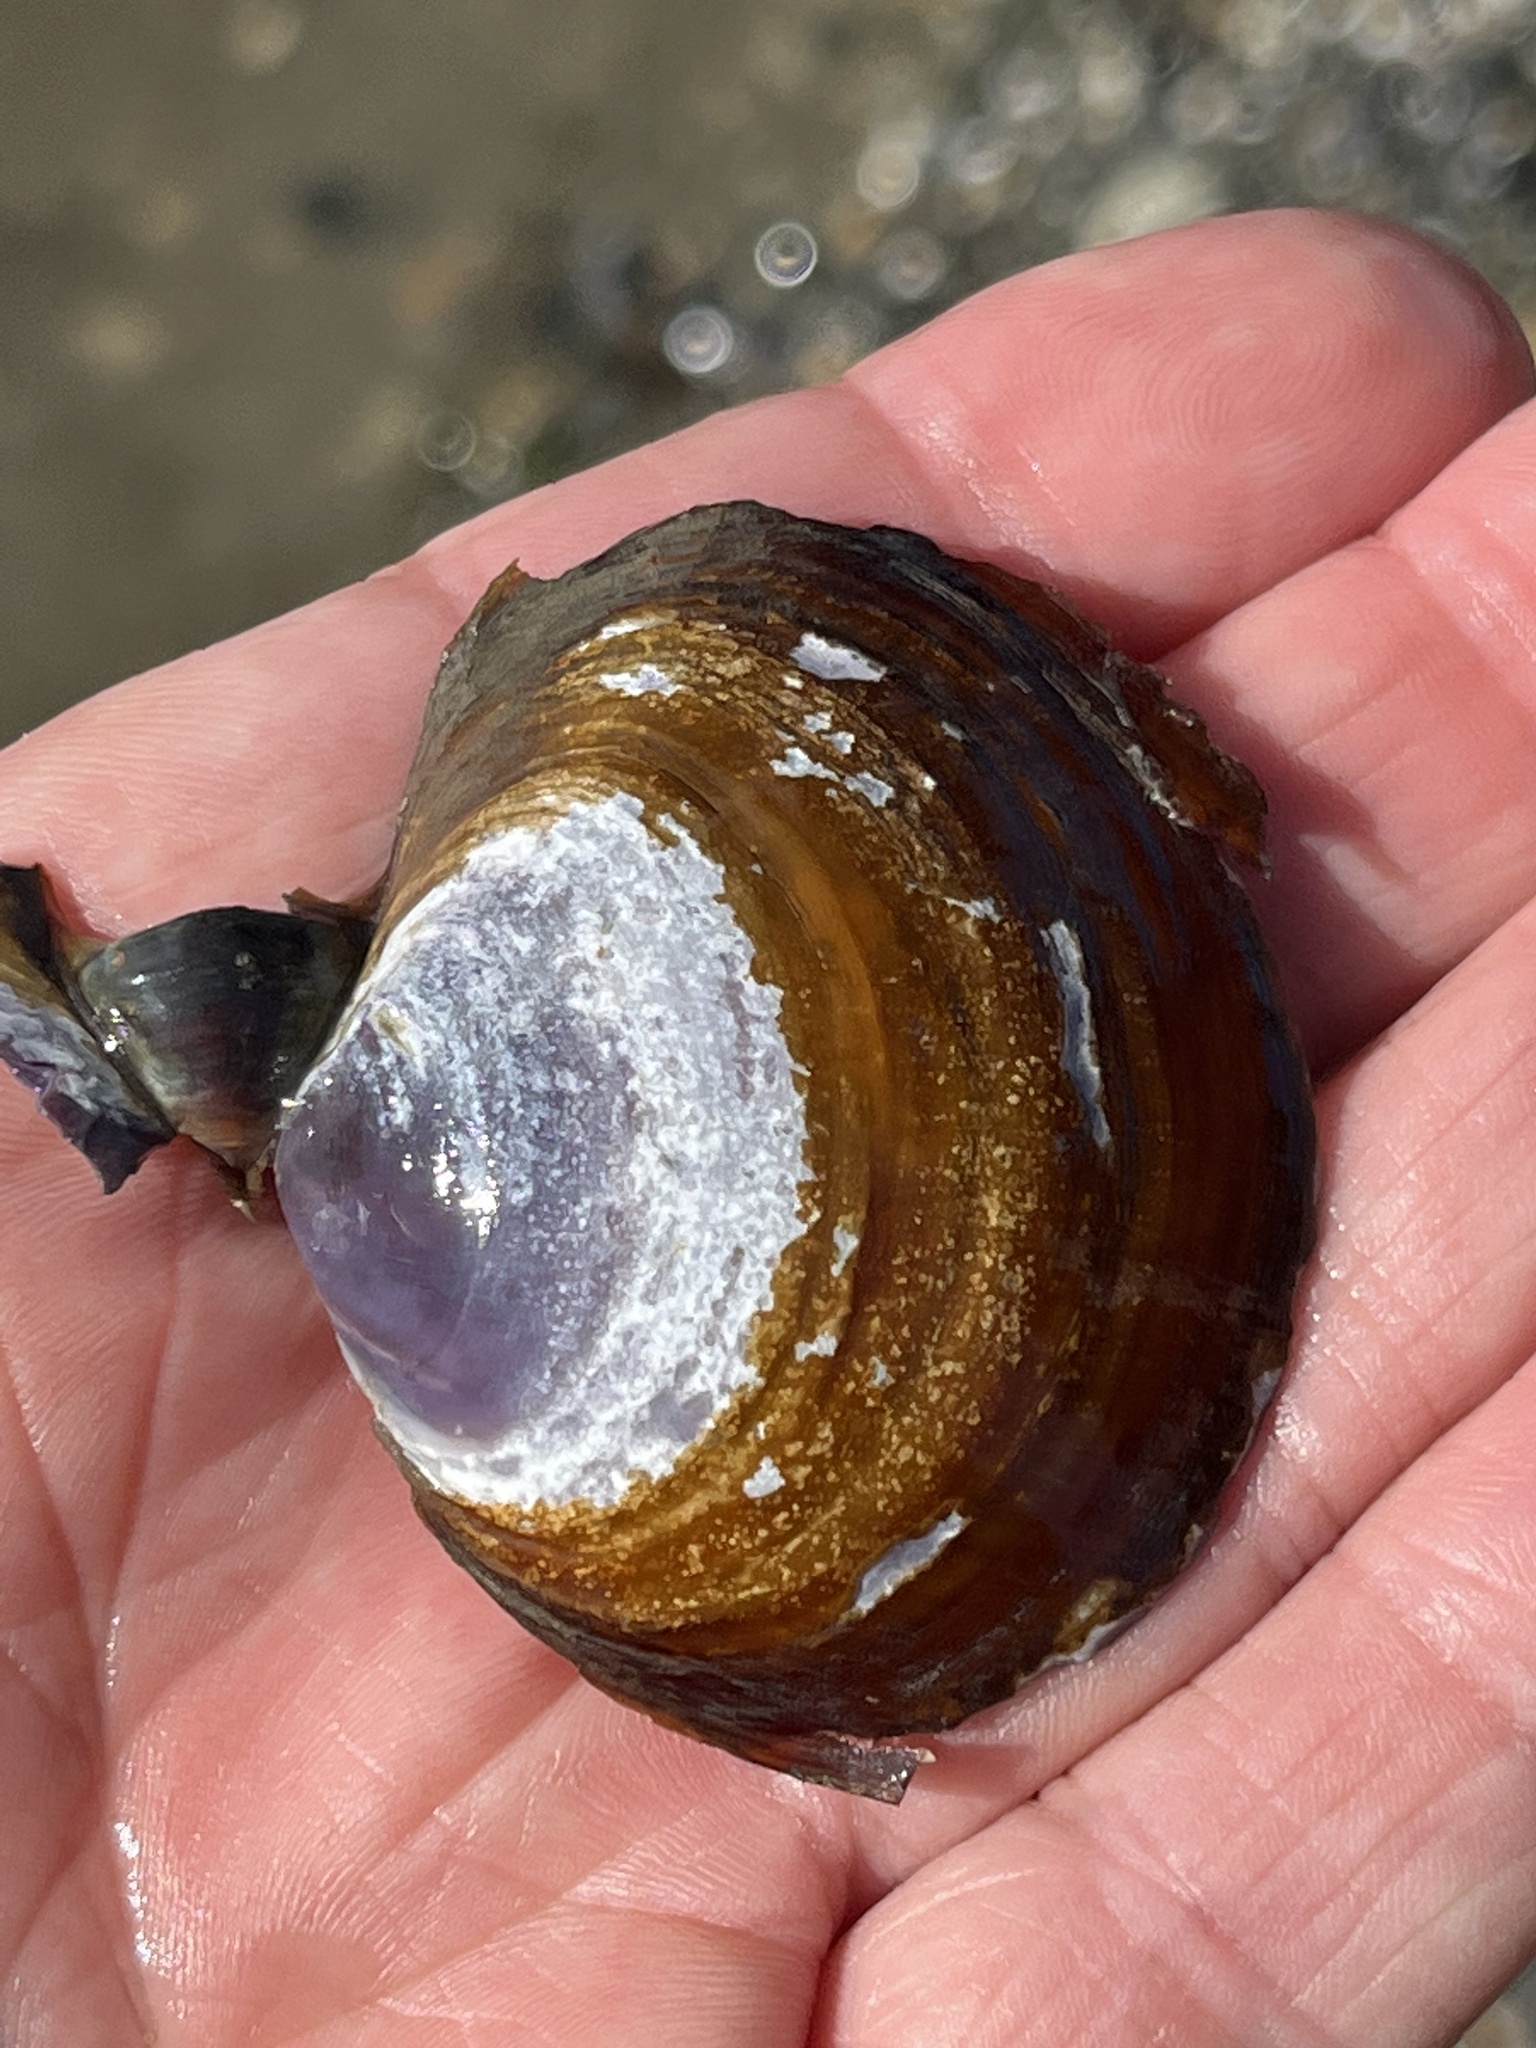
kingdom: Animalia
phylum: Mollusca
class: Bivalvia
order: Cardiida
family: Psammobiidae
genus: Nuttallia
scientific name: Nuttallia obscurata
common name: Purple mahogany-clam
